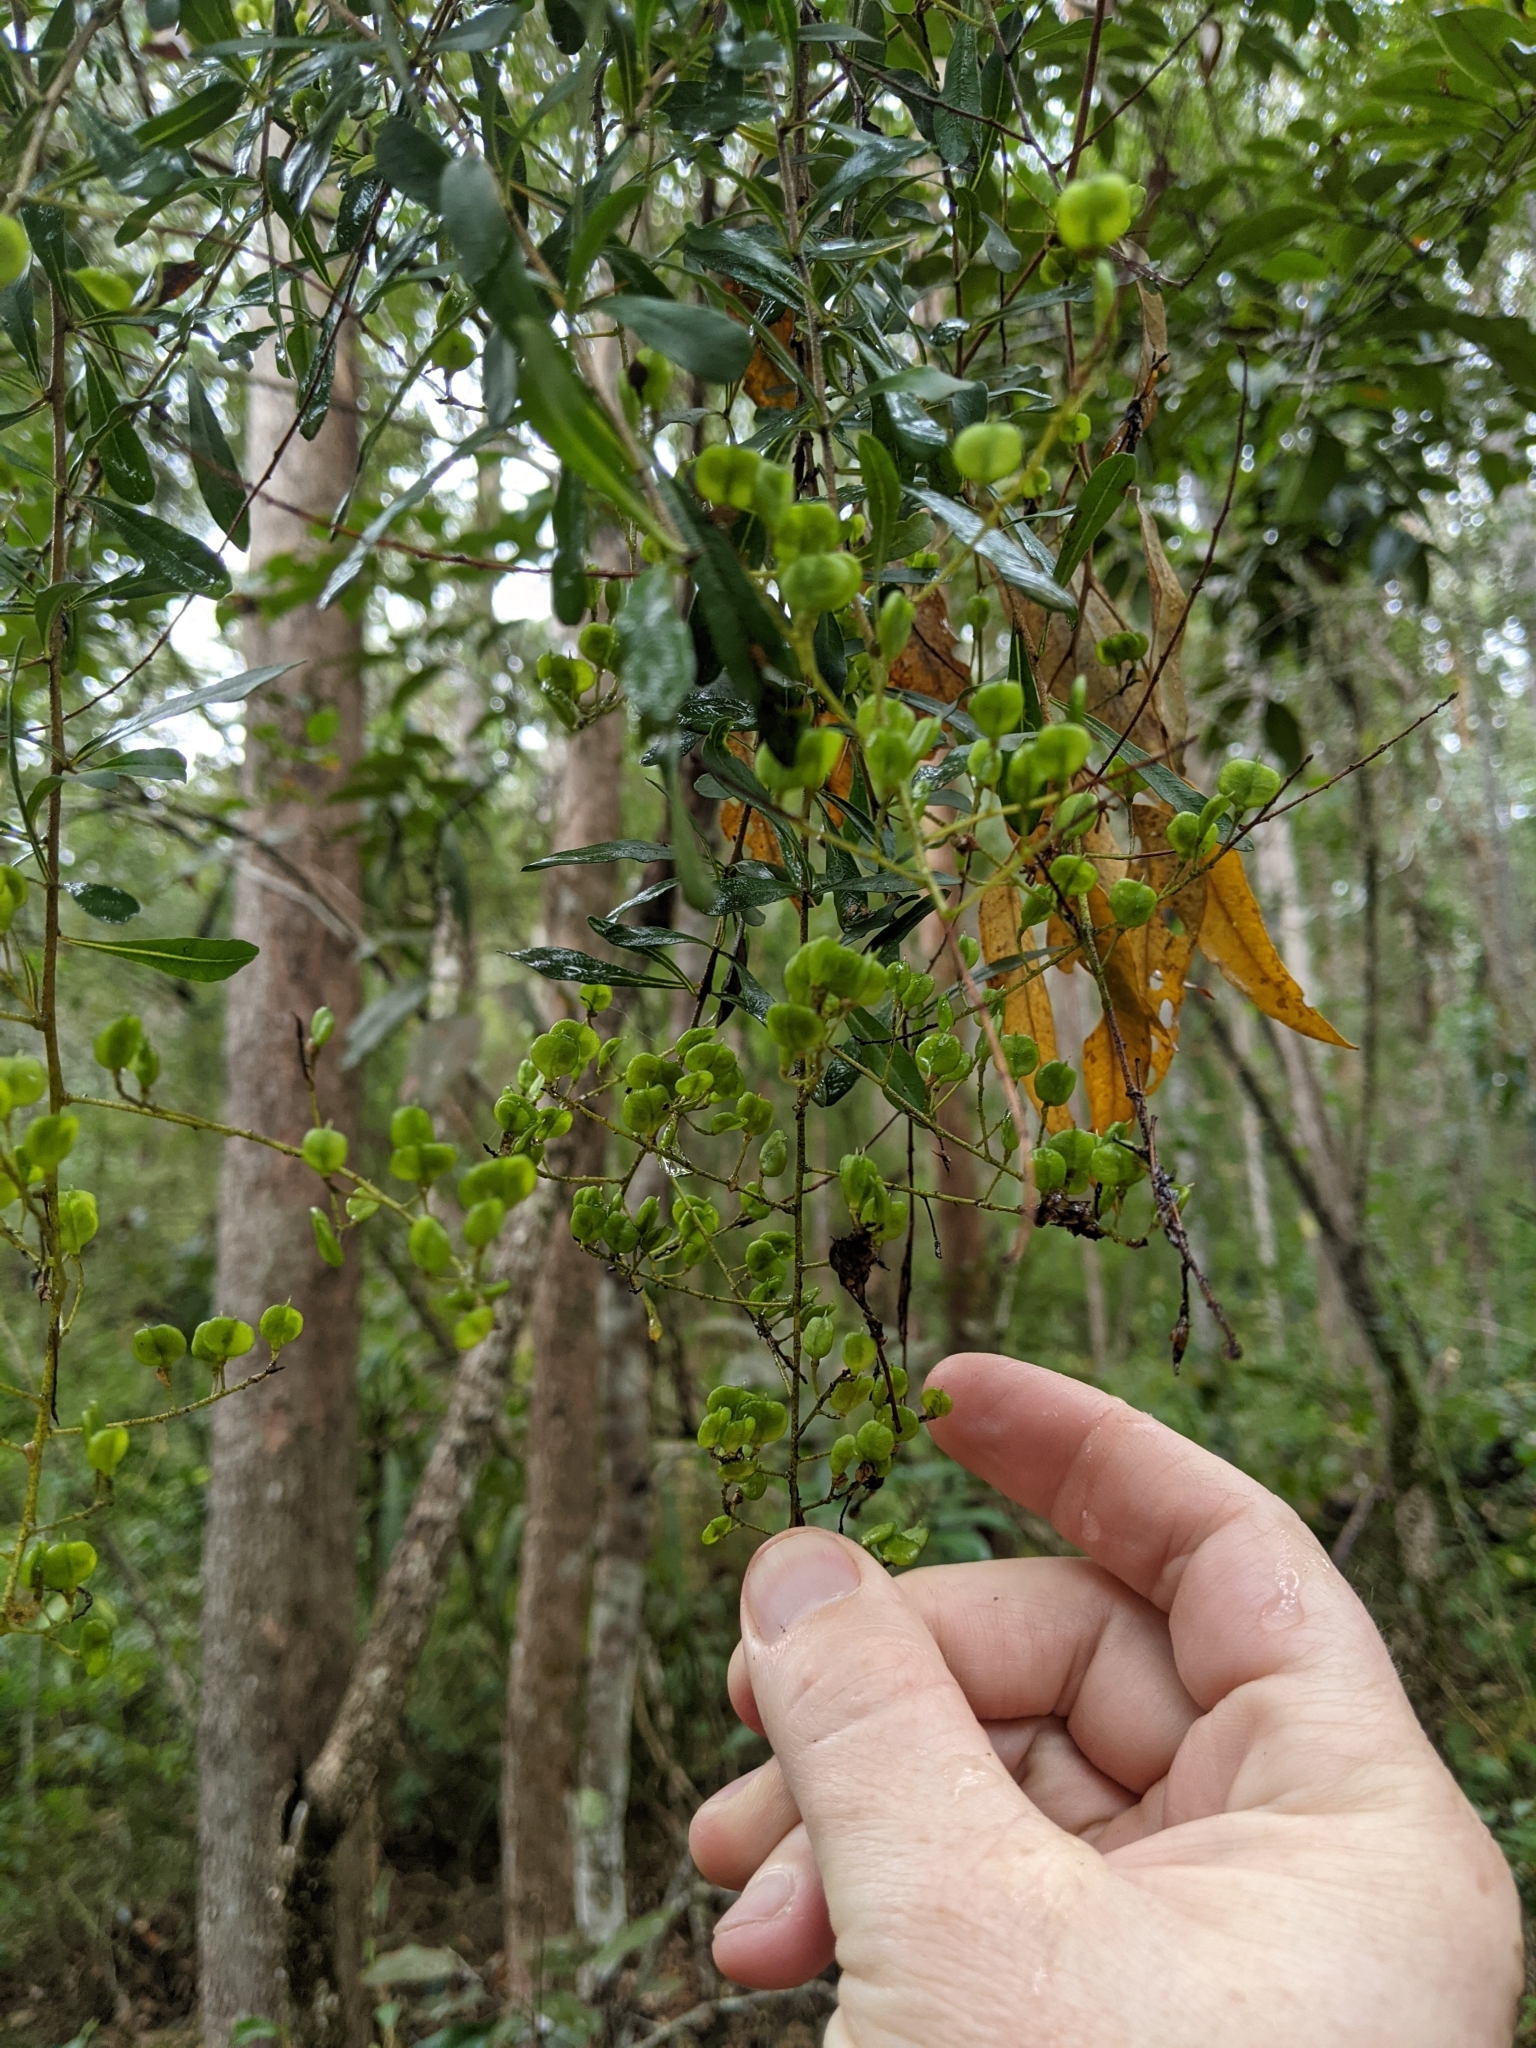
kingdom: Plantae
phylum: Tracheophyta
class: Magnoliopsida
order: Apiales
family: Pittosporaceae
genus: Bursaria
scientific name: Bursaria spinosa
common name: Australian blackthorn
